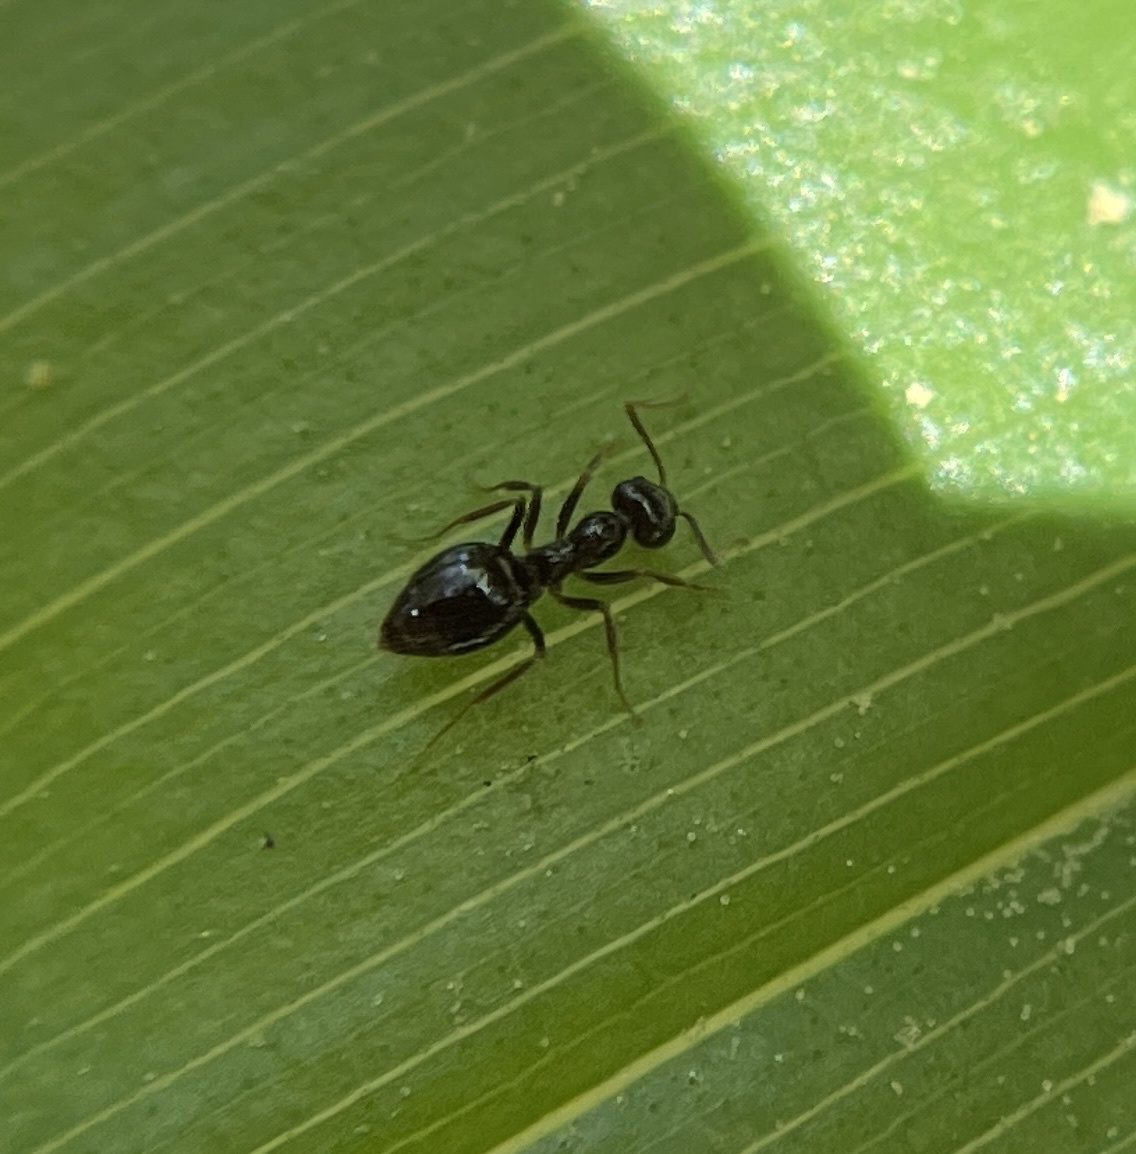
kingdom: Animalia
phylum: Arthropoda
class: Insecta
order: Hymenoptera
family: Formicidae
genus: Prenolepis
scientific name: Prenolepis imparis
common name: Small honey ant
